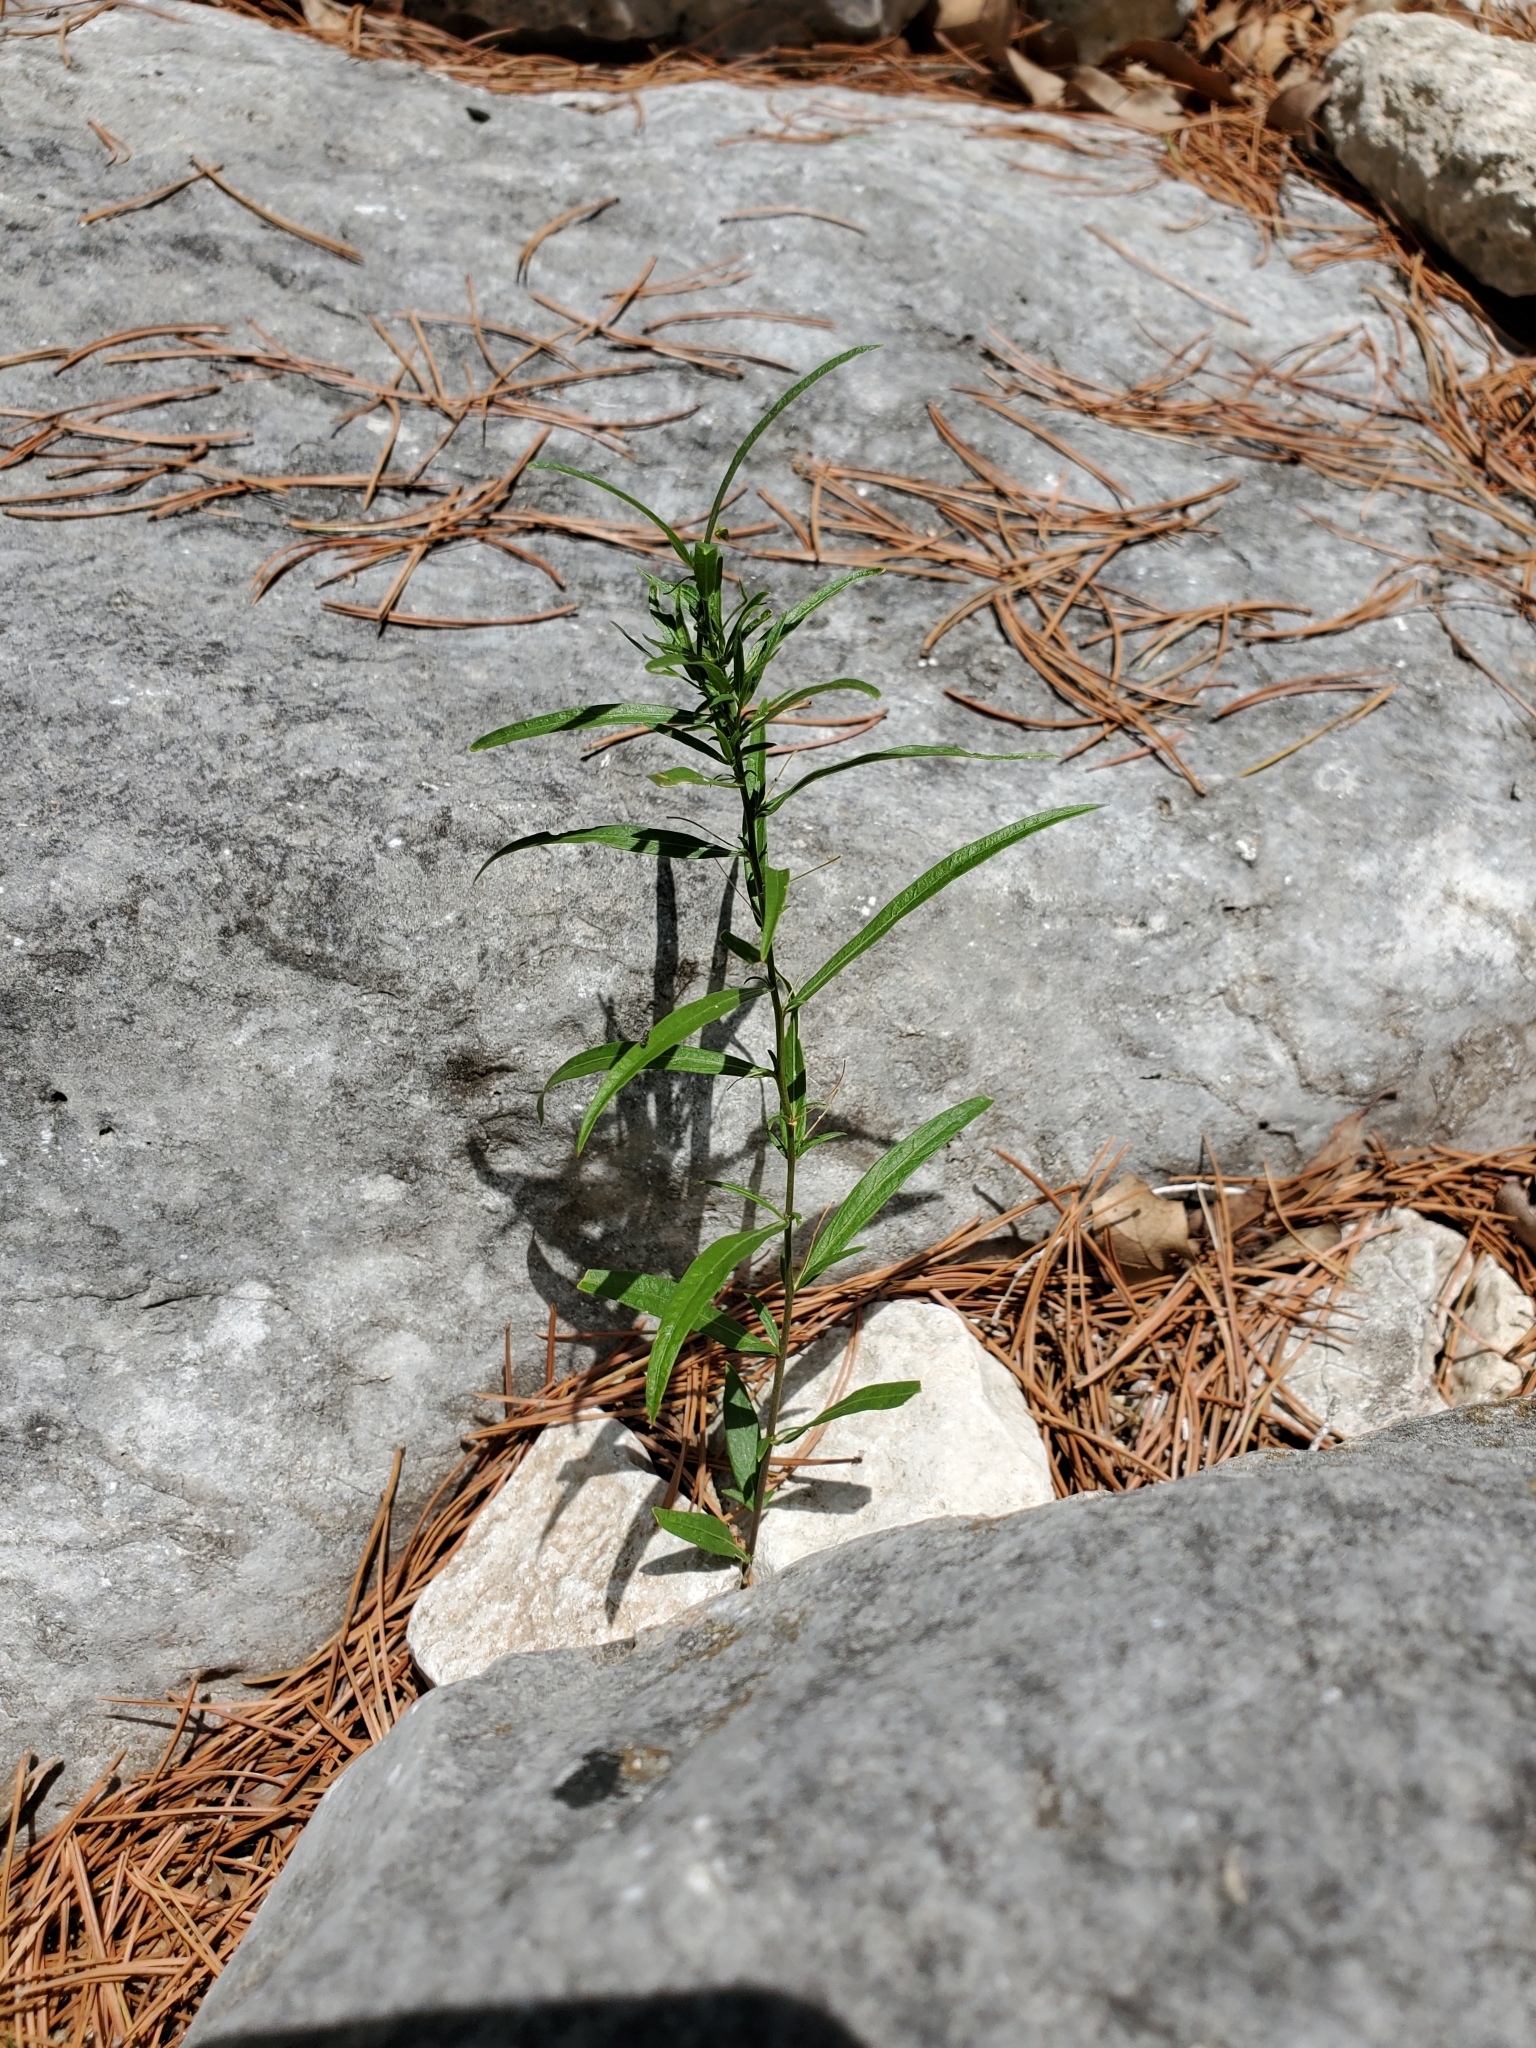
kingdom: Plantae
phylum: Tracheophyta
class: Magnoliopsida
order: Malpighiales
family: Violaceae
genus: Pombalia
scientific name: Pombalia verticillata
